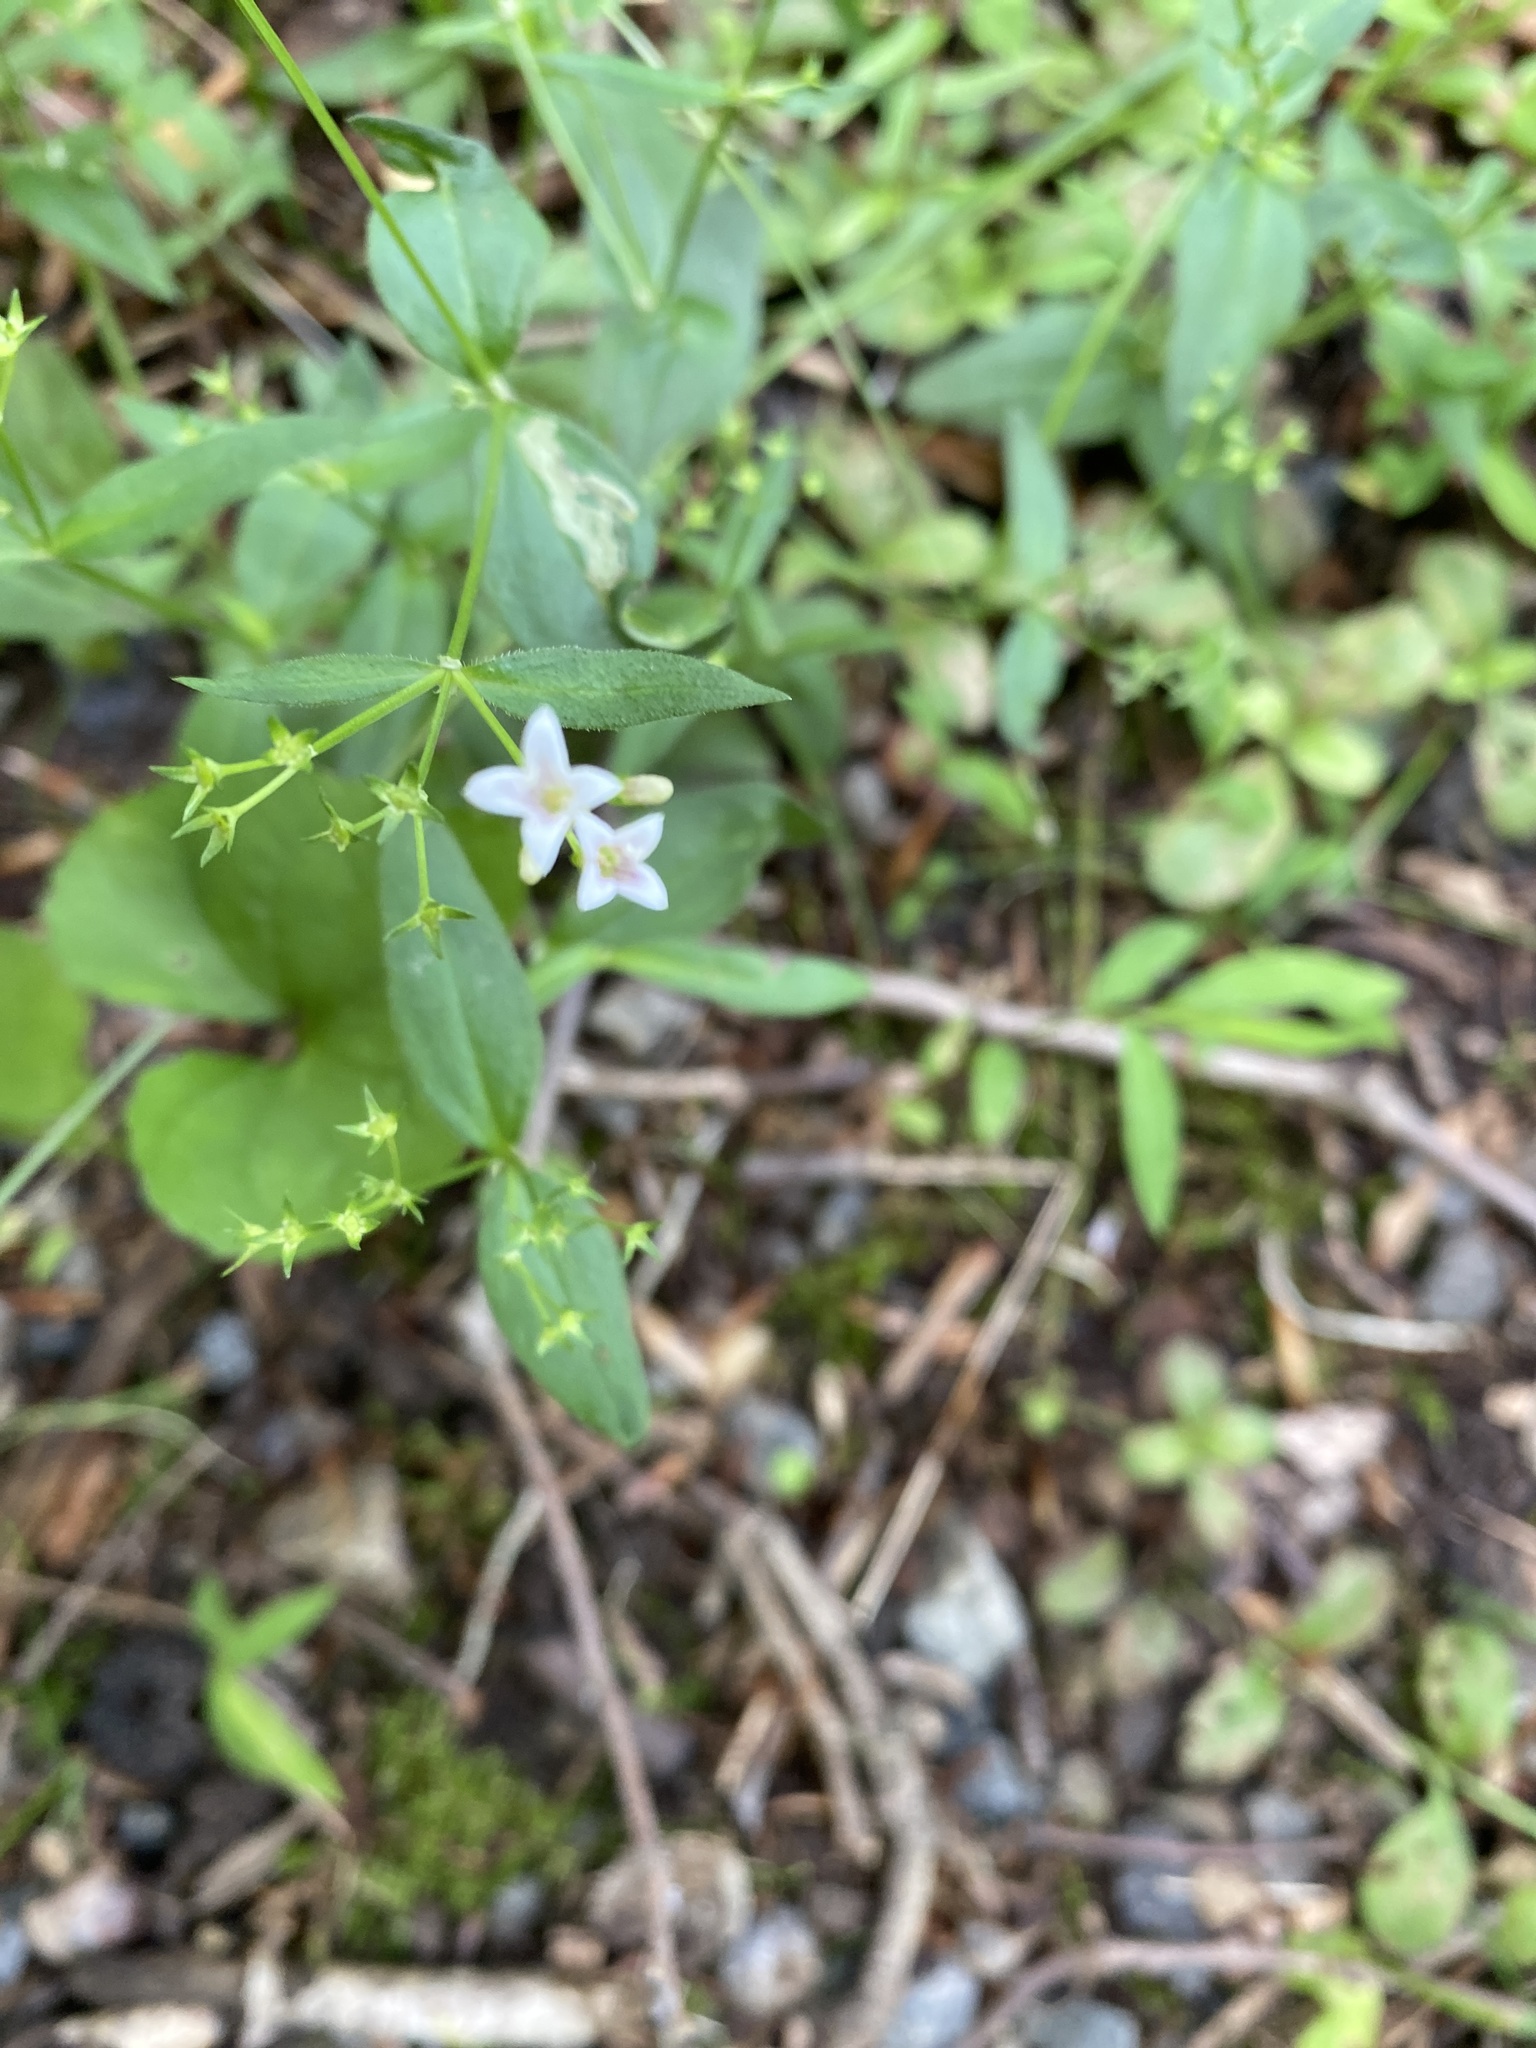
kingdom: Plantae
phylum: Tracheophyta
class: Magnoliopsida
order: Gentianales
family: Rubiaceae
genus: Houstonia
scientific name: Houstonia purpurea
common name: Summer bluet
